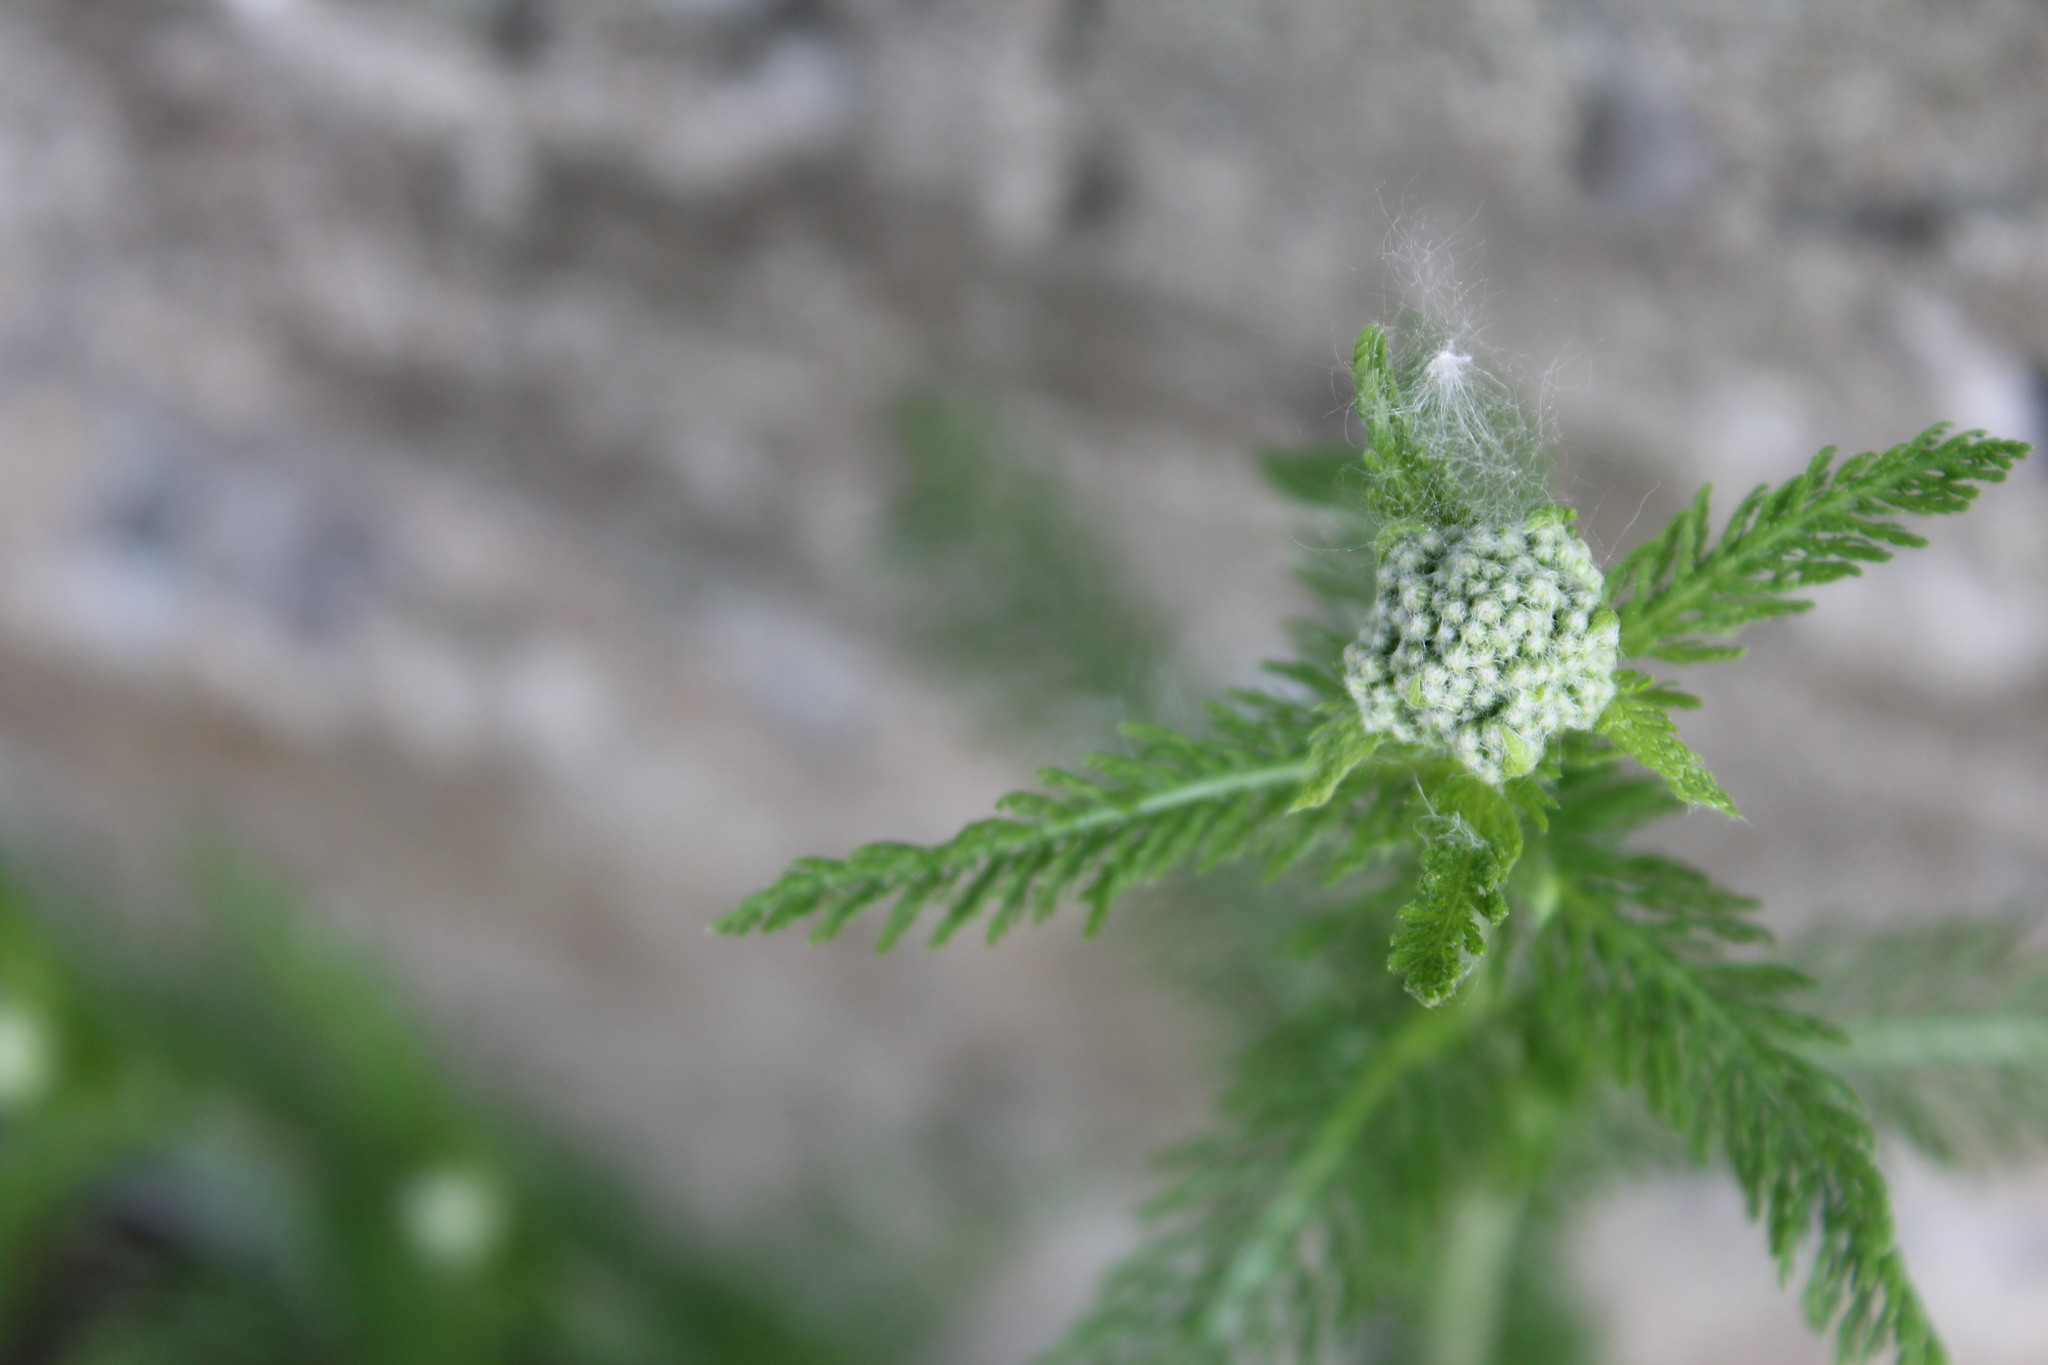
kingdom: Plantae
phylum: Tracheophyta
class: Magnoliopsida
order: Asterales
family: Asteraceae
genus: Achillea
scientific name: Achillea millefolium
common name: Yarrow
